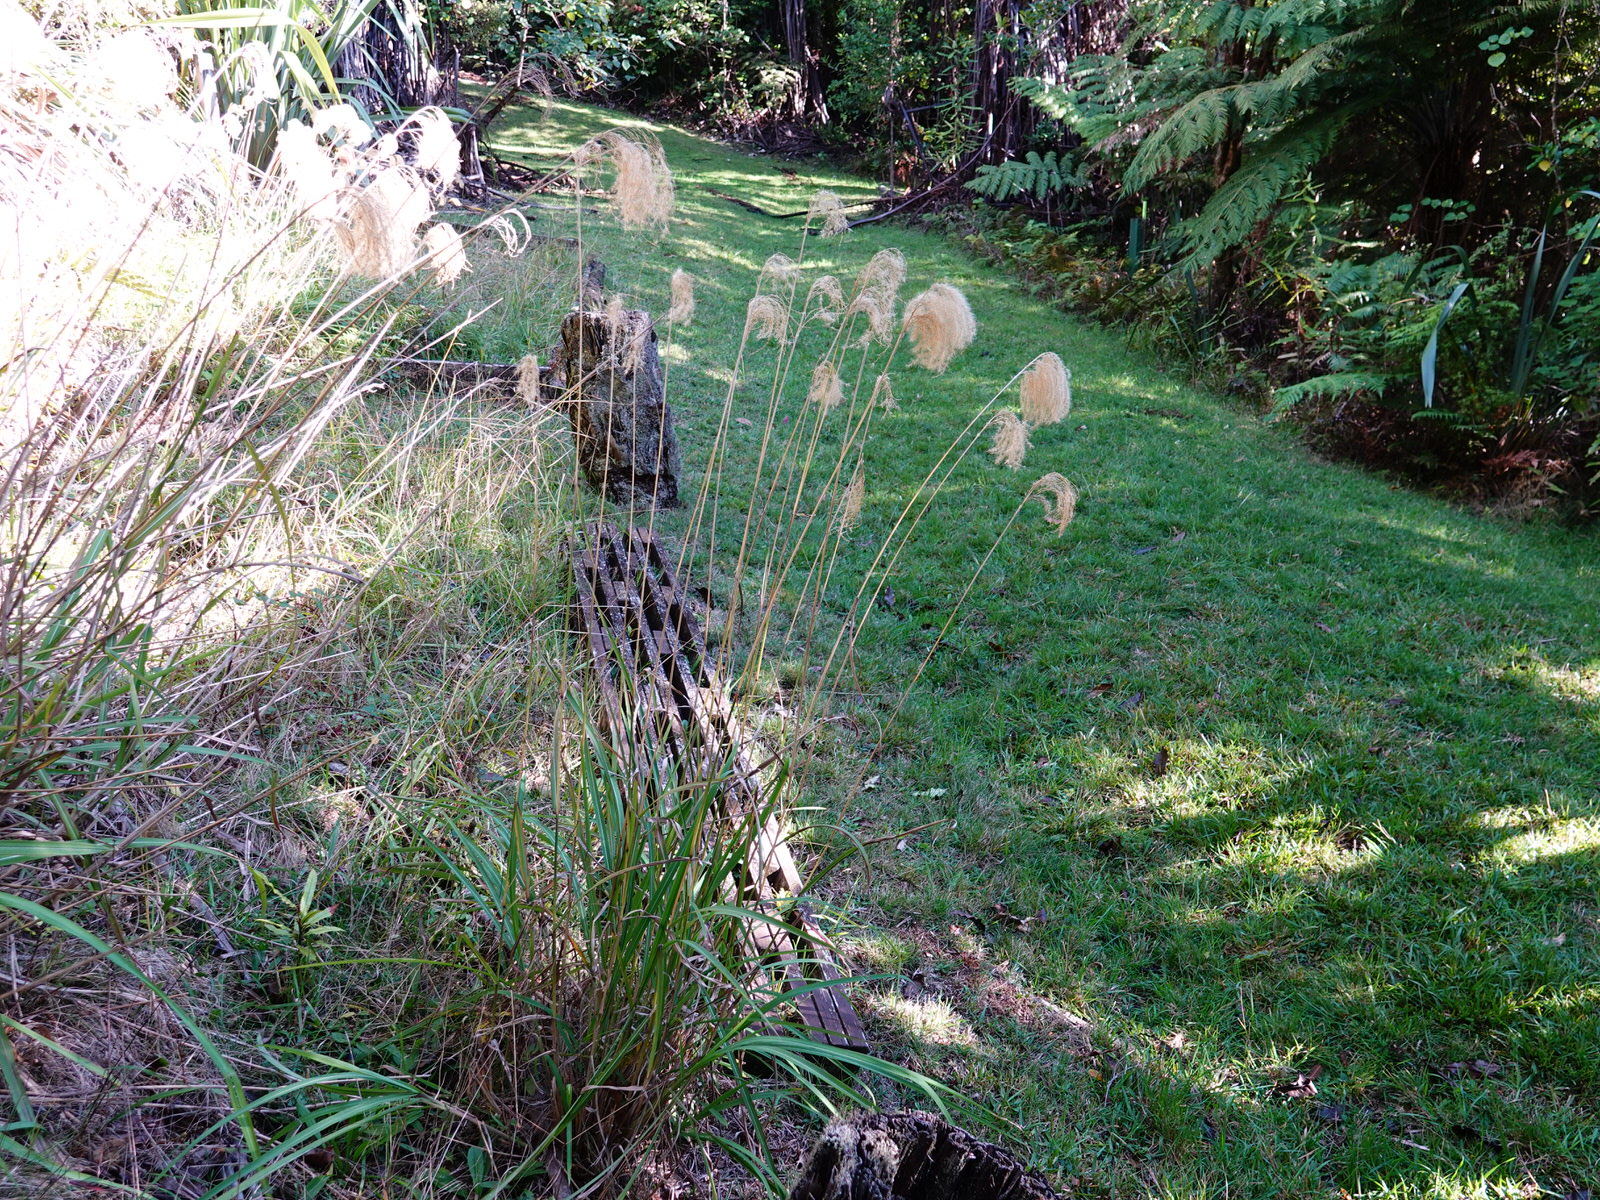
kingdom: Plantae
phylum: Tracheophyta
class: Liliopsida
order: Poales
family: Poaceae
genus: Miscanthus
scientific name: Miscanthus nepalensis
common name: Nepal silver grass
